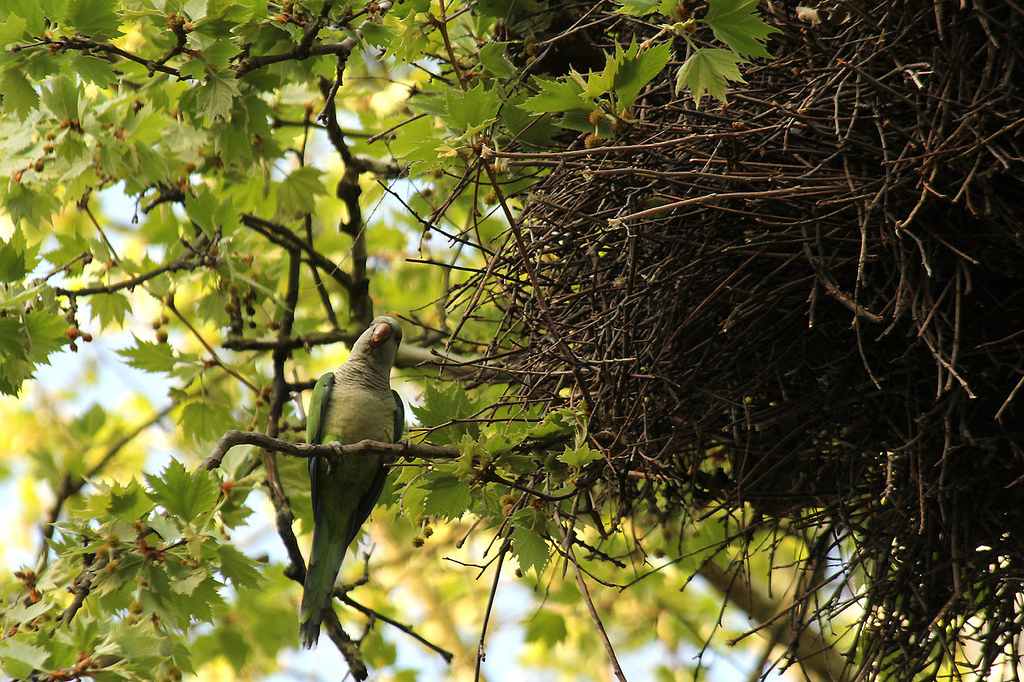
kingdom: Animalia
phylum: Chordata
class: Aves
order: Psittaciformes
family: Psittacidae
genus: Myiopsitta
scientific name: Myiopsitta monachus
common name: Monk parakeet
